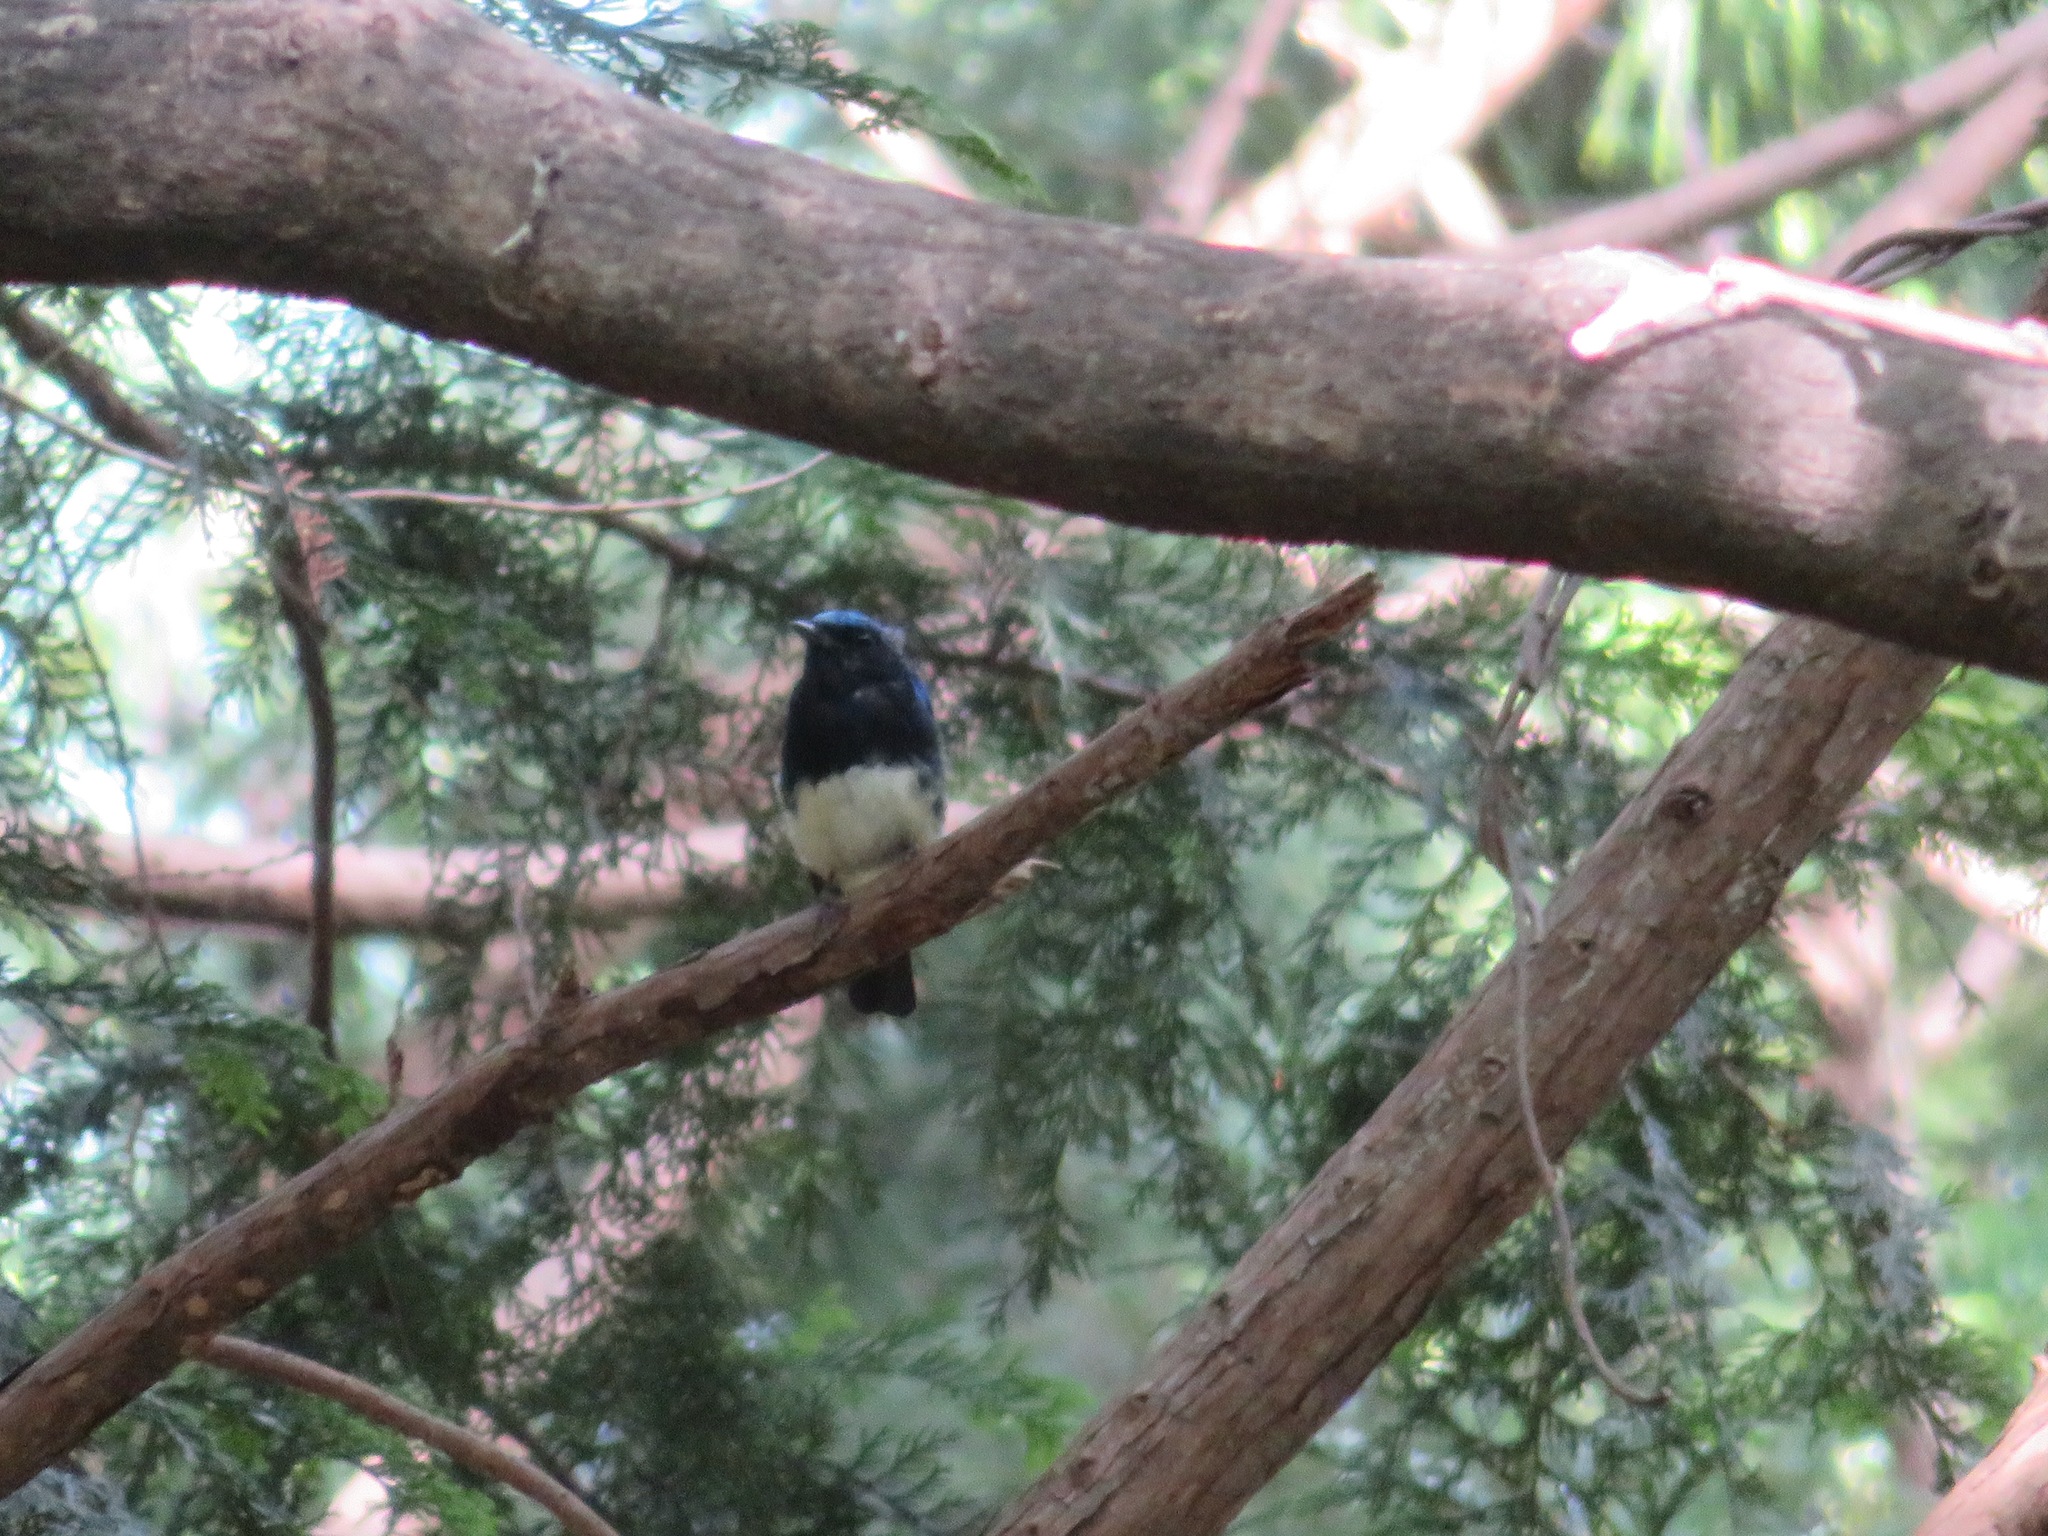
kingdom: Animalia
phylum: Chordata
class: Aves
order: Passeriformes
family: Muscicapidae
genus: Cyanoptila
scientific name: Cyanoptila cyanomelana
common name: Blue-and-white flycatcher
